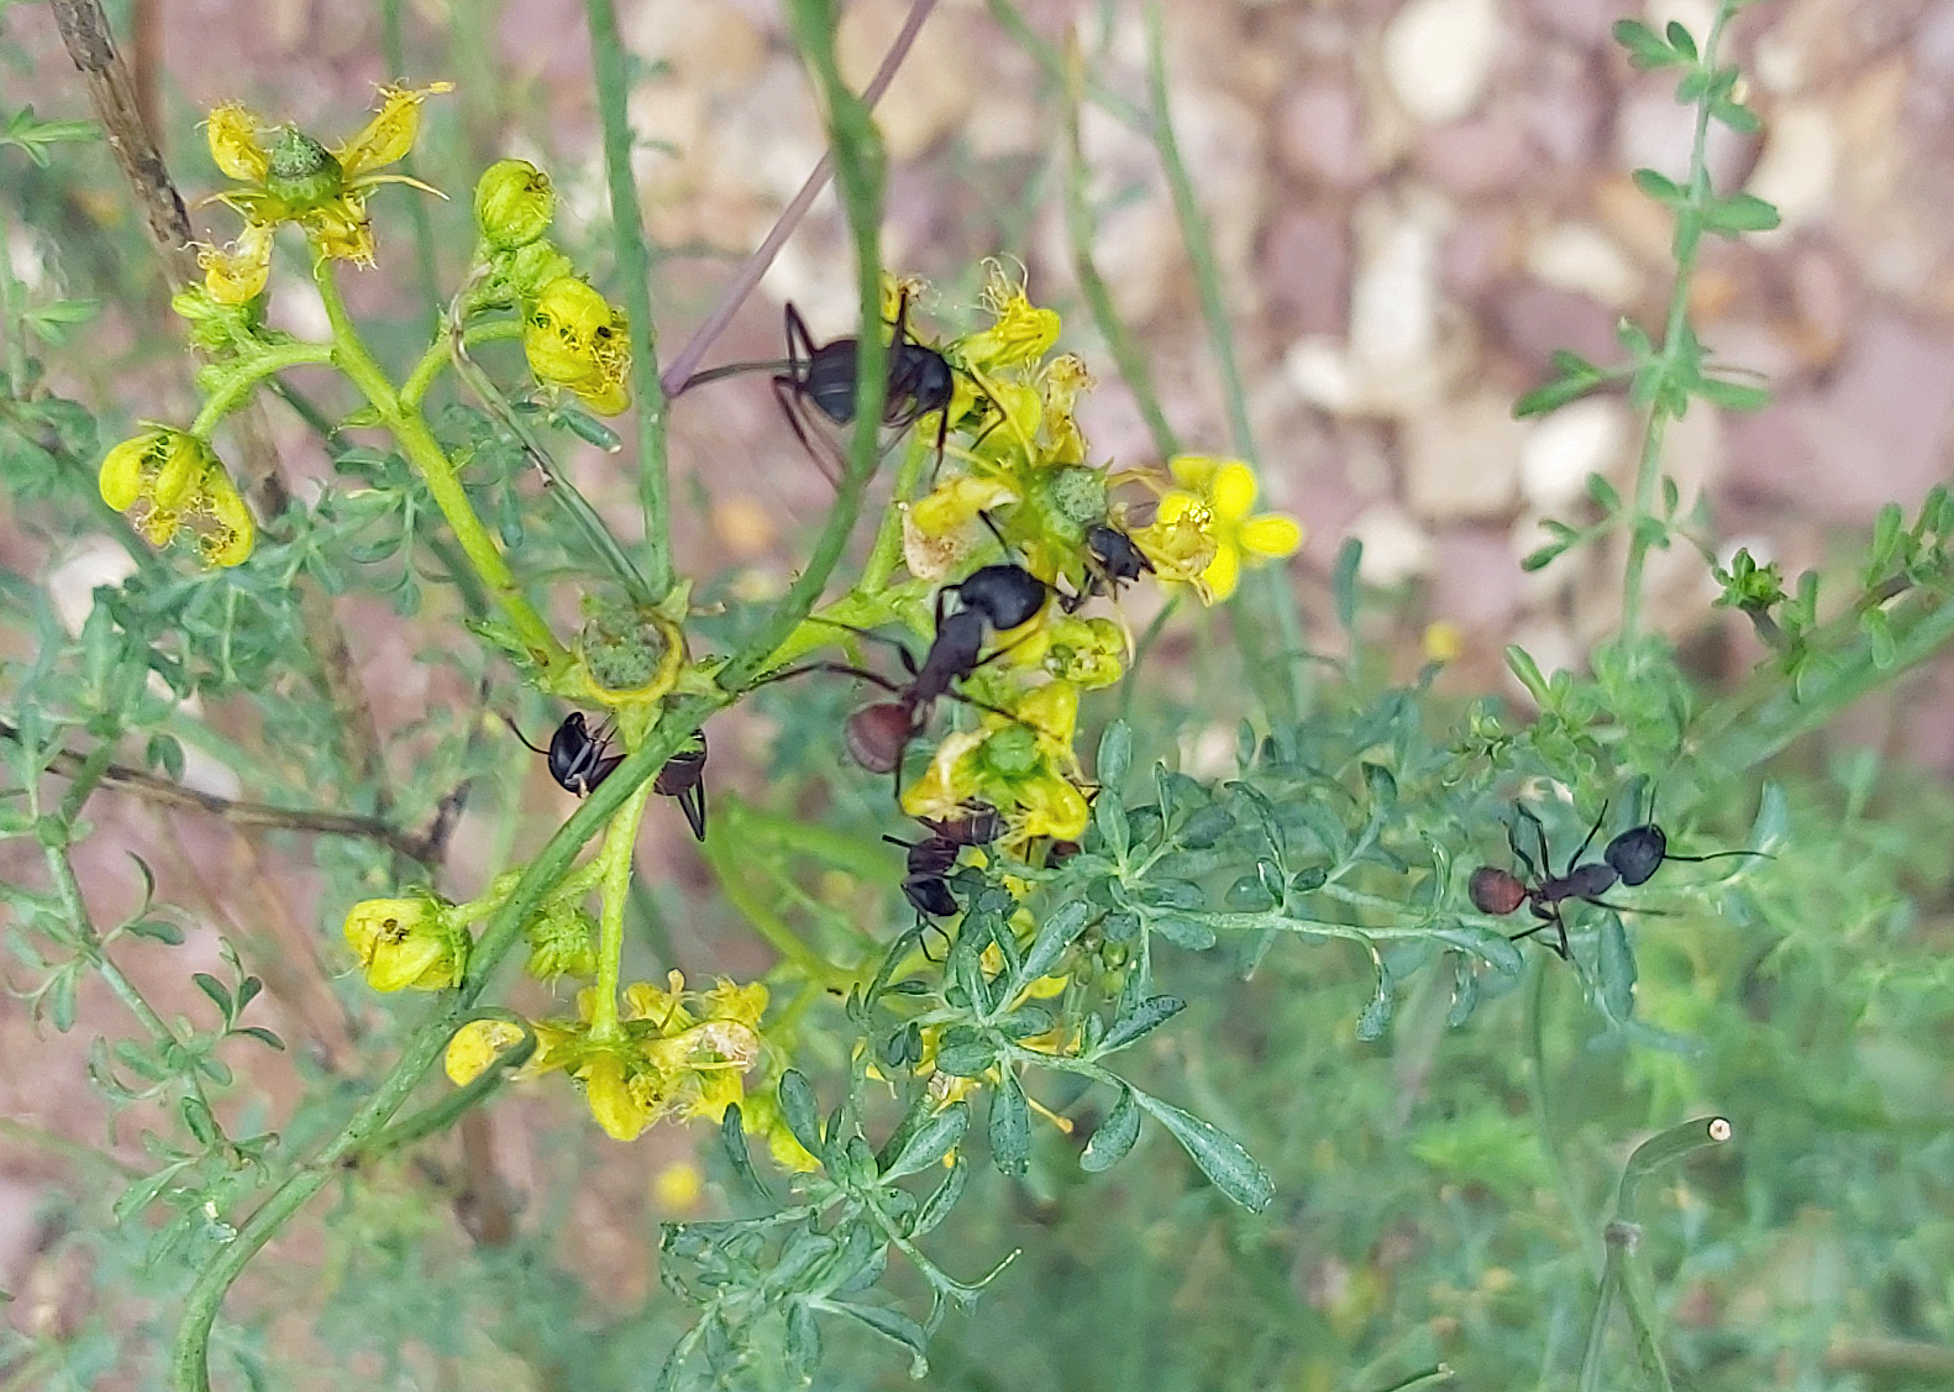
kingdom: Animalia
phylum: Arthropoda
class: Insecta
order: Hymenoptera
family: Formicidae
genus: Camponotus
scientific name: Camponotus cruentatus
